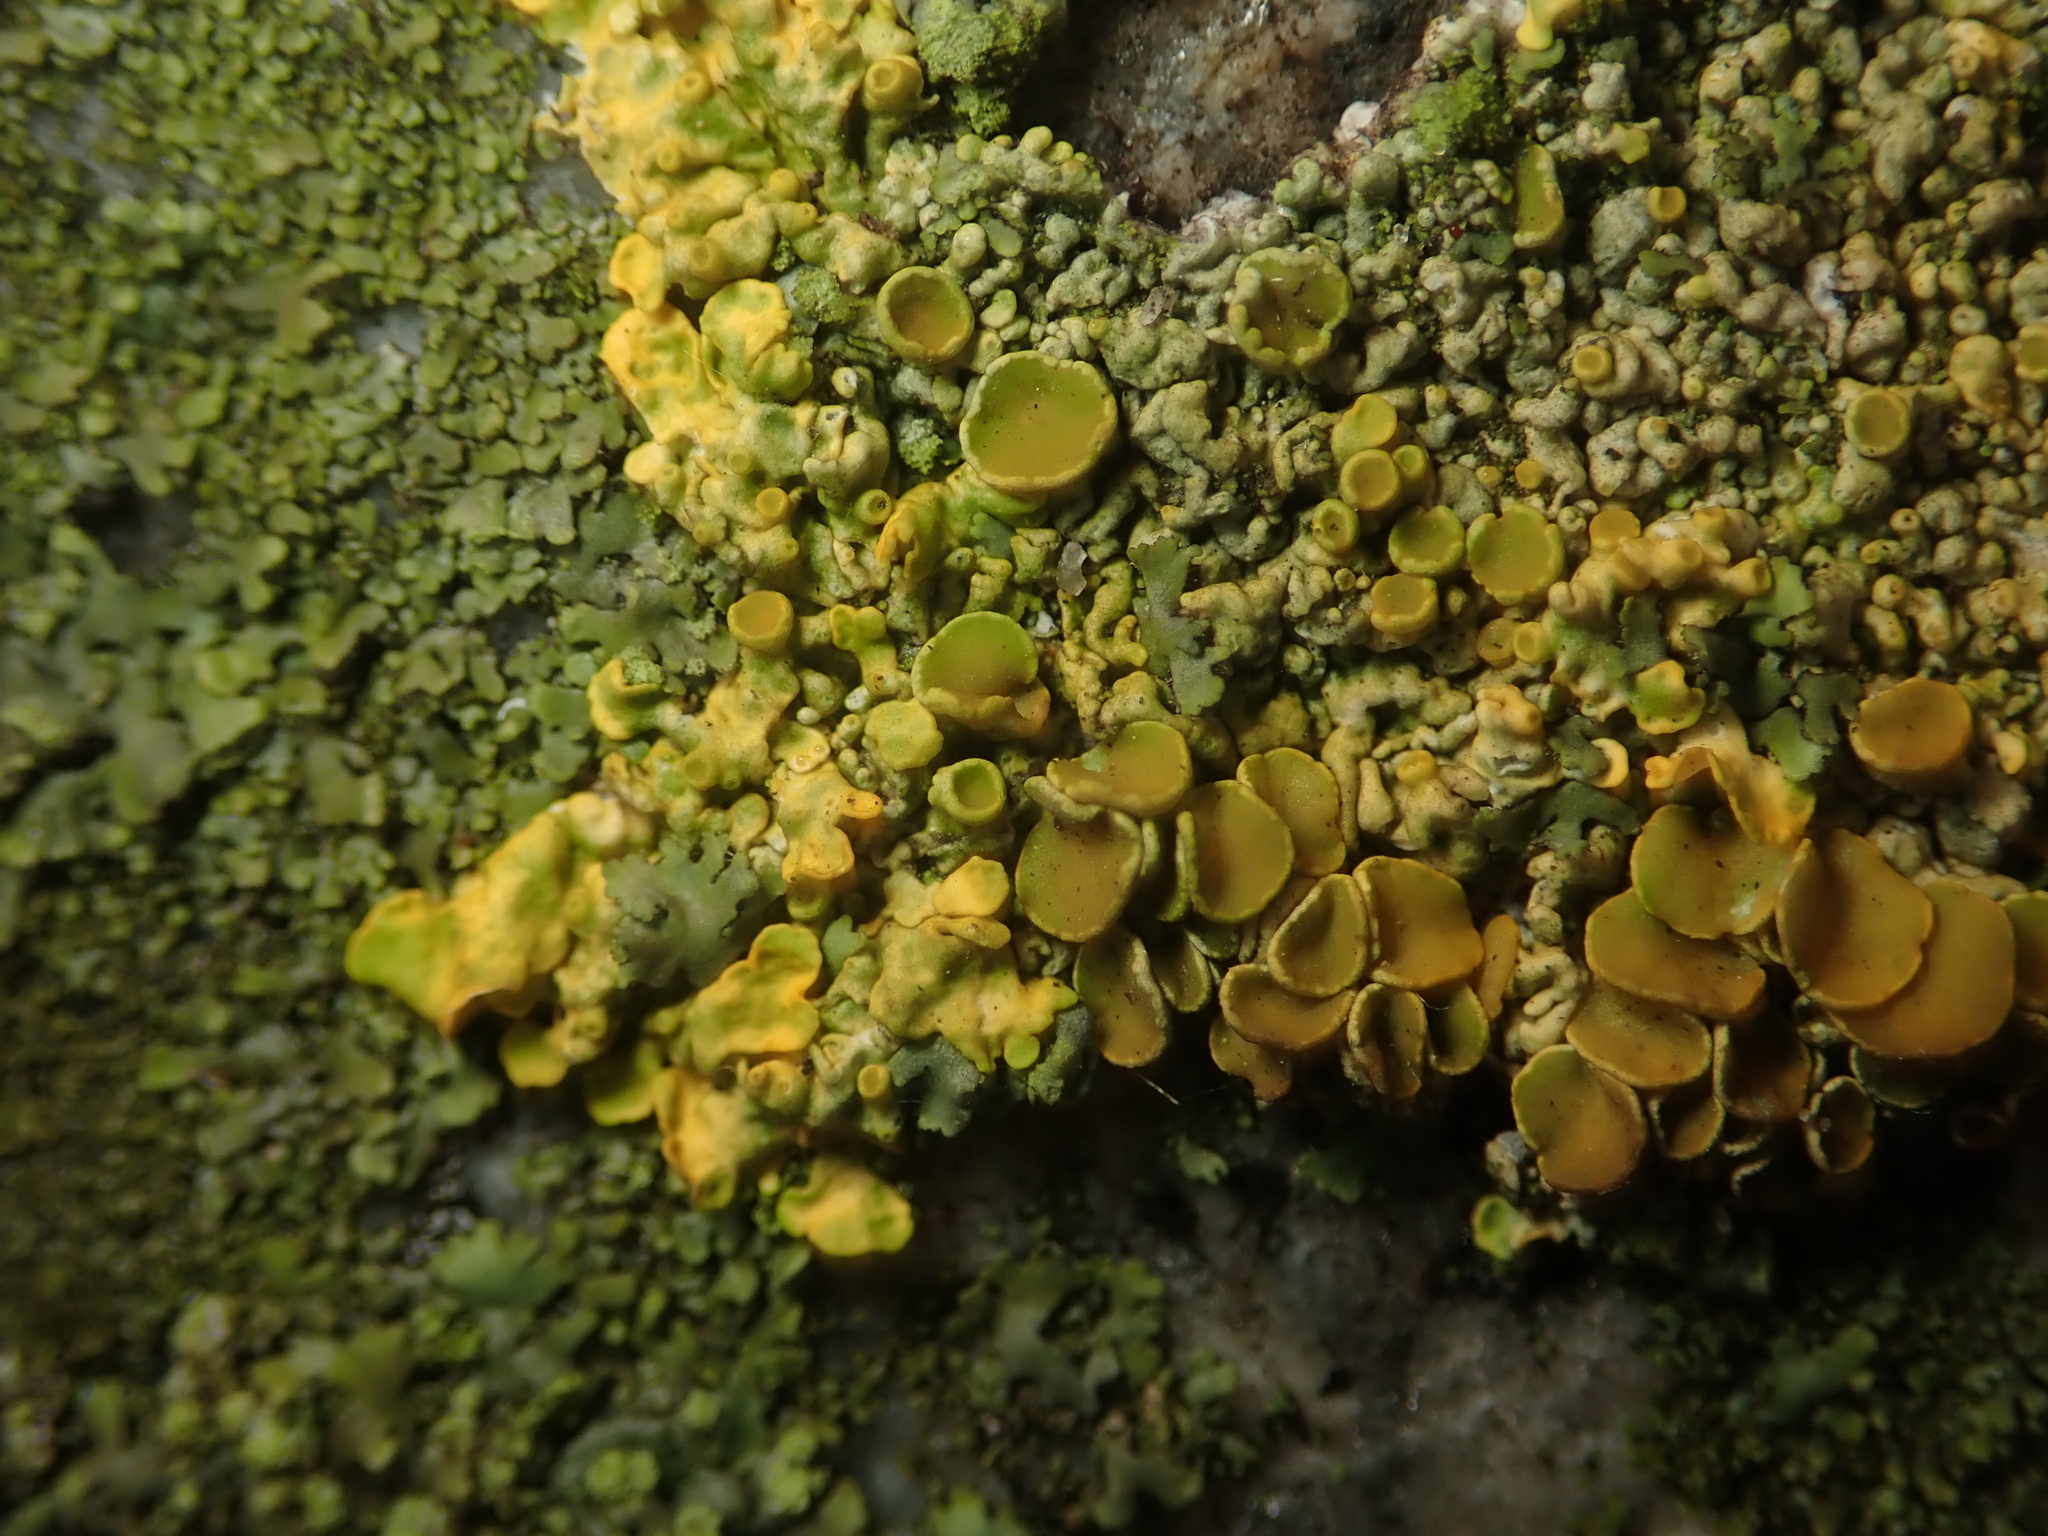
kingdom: Fungi
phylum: Ascomycota
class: Lecanoromycetes
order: Teloschistales
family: Teloschistaceae
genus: Xanthoria
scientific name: Xanthoria parietina
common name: Common orange lichen
